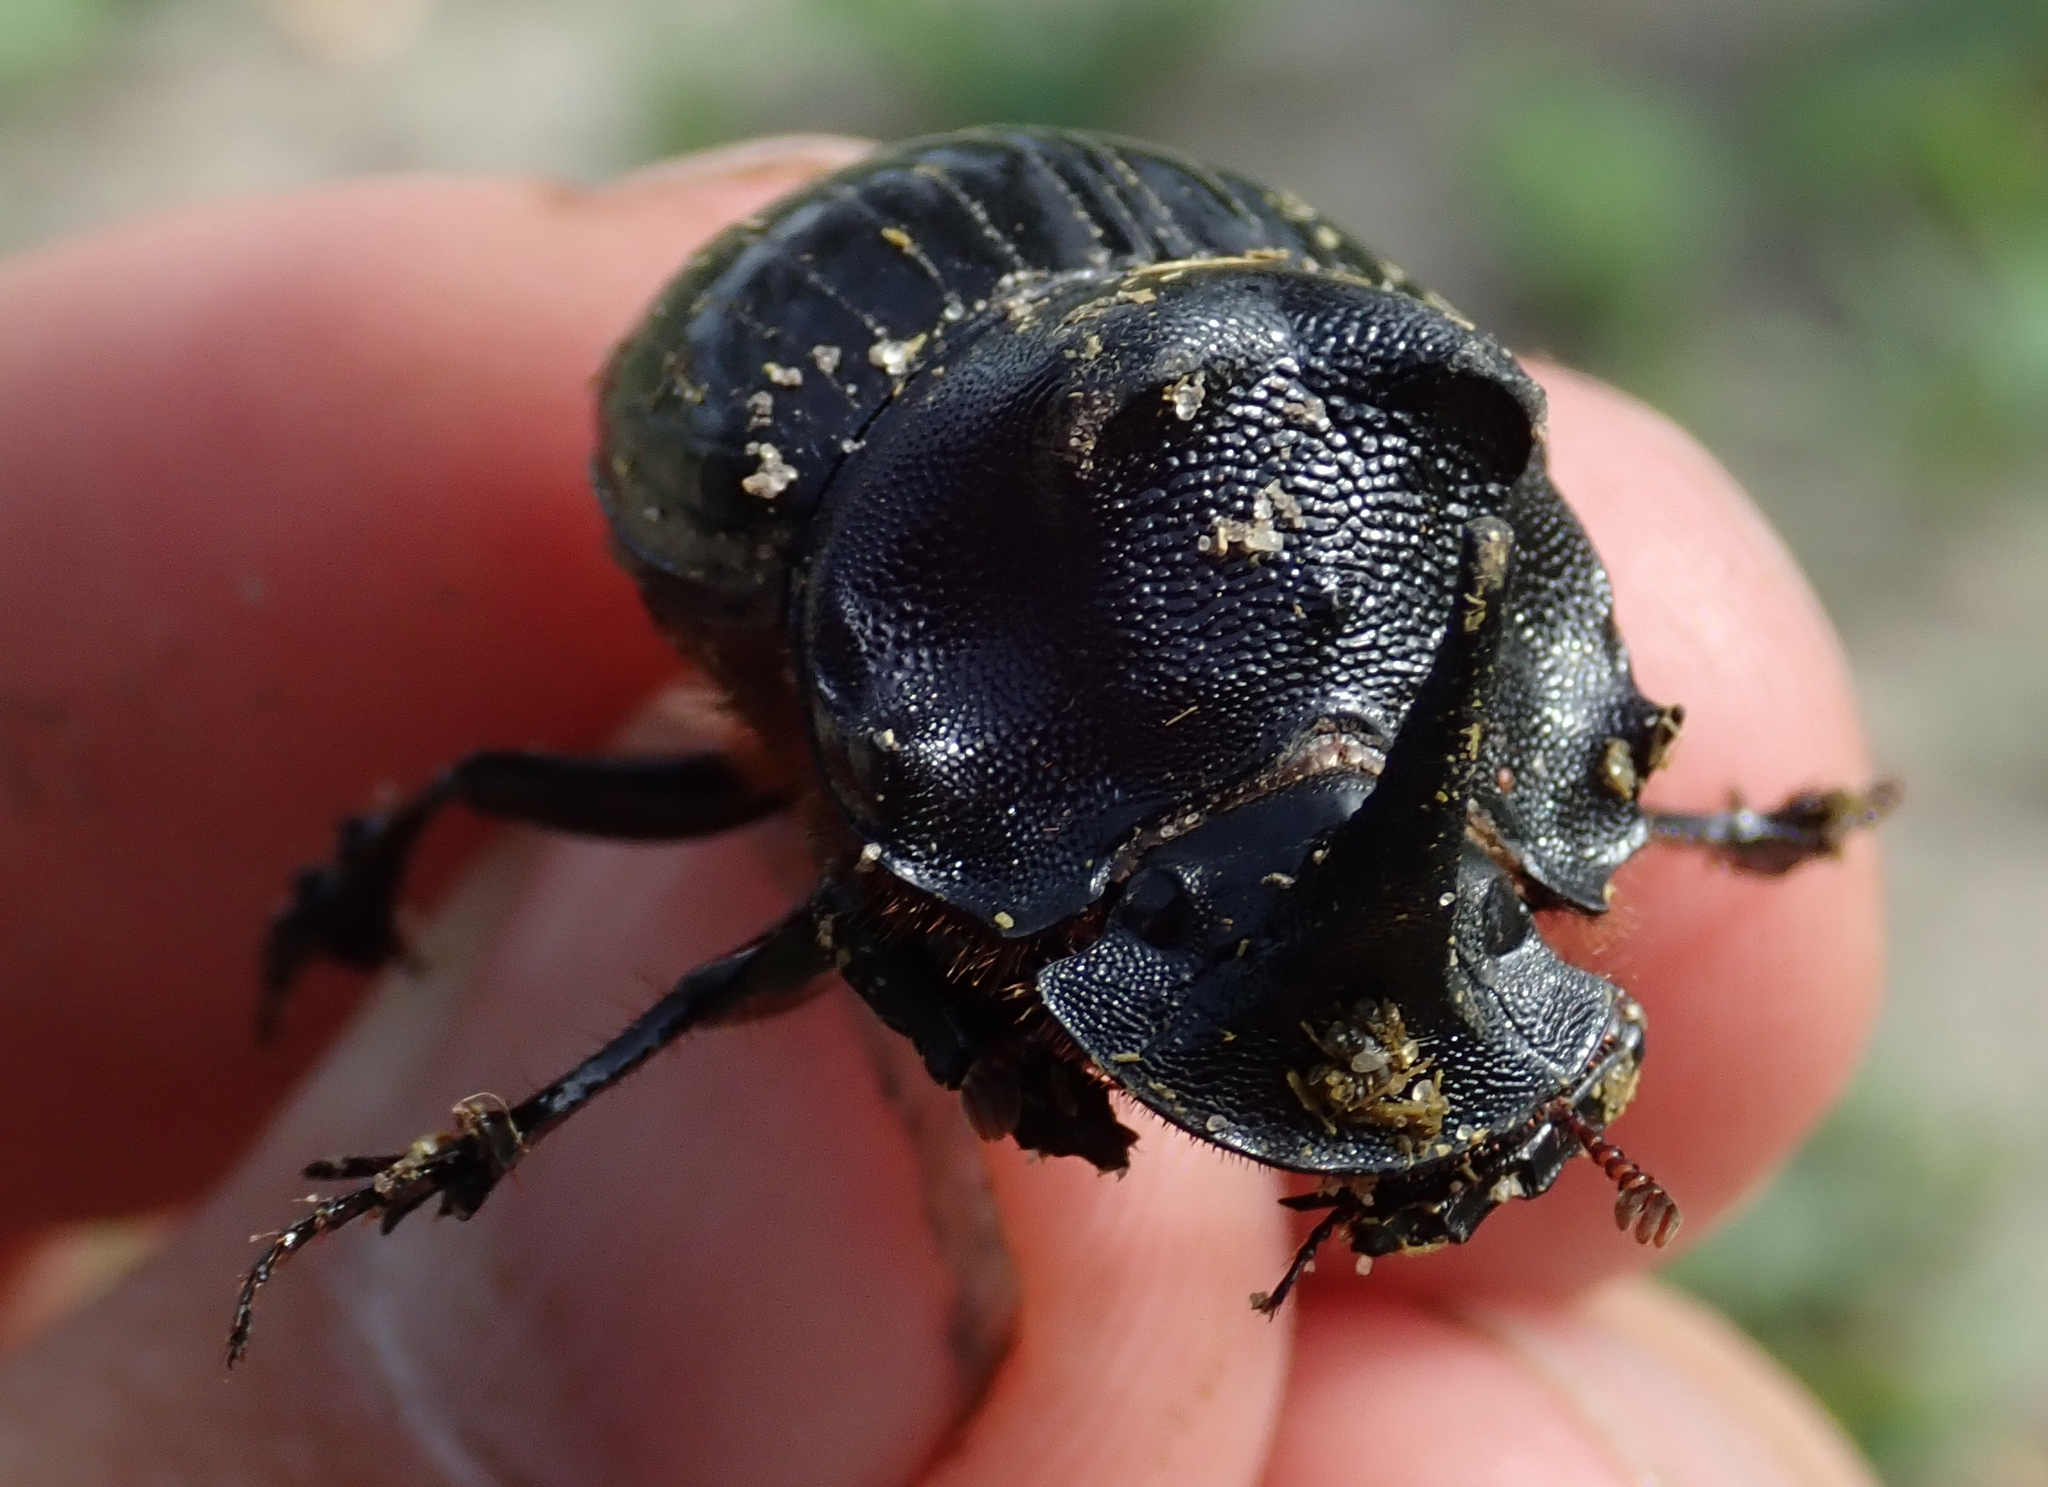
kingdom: Animalia
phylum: Arthropoda
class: Insecta
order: Coleoptera
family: Scarabaeidae
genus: Copris
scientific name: Copris elphenor
